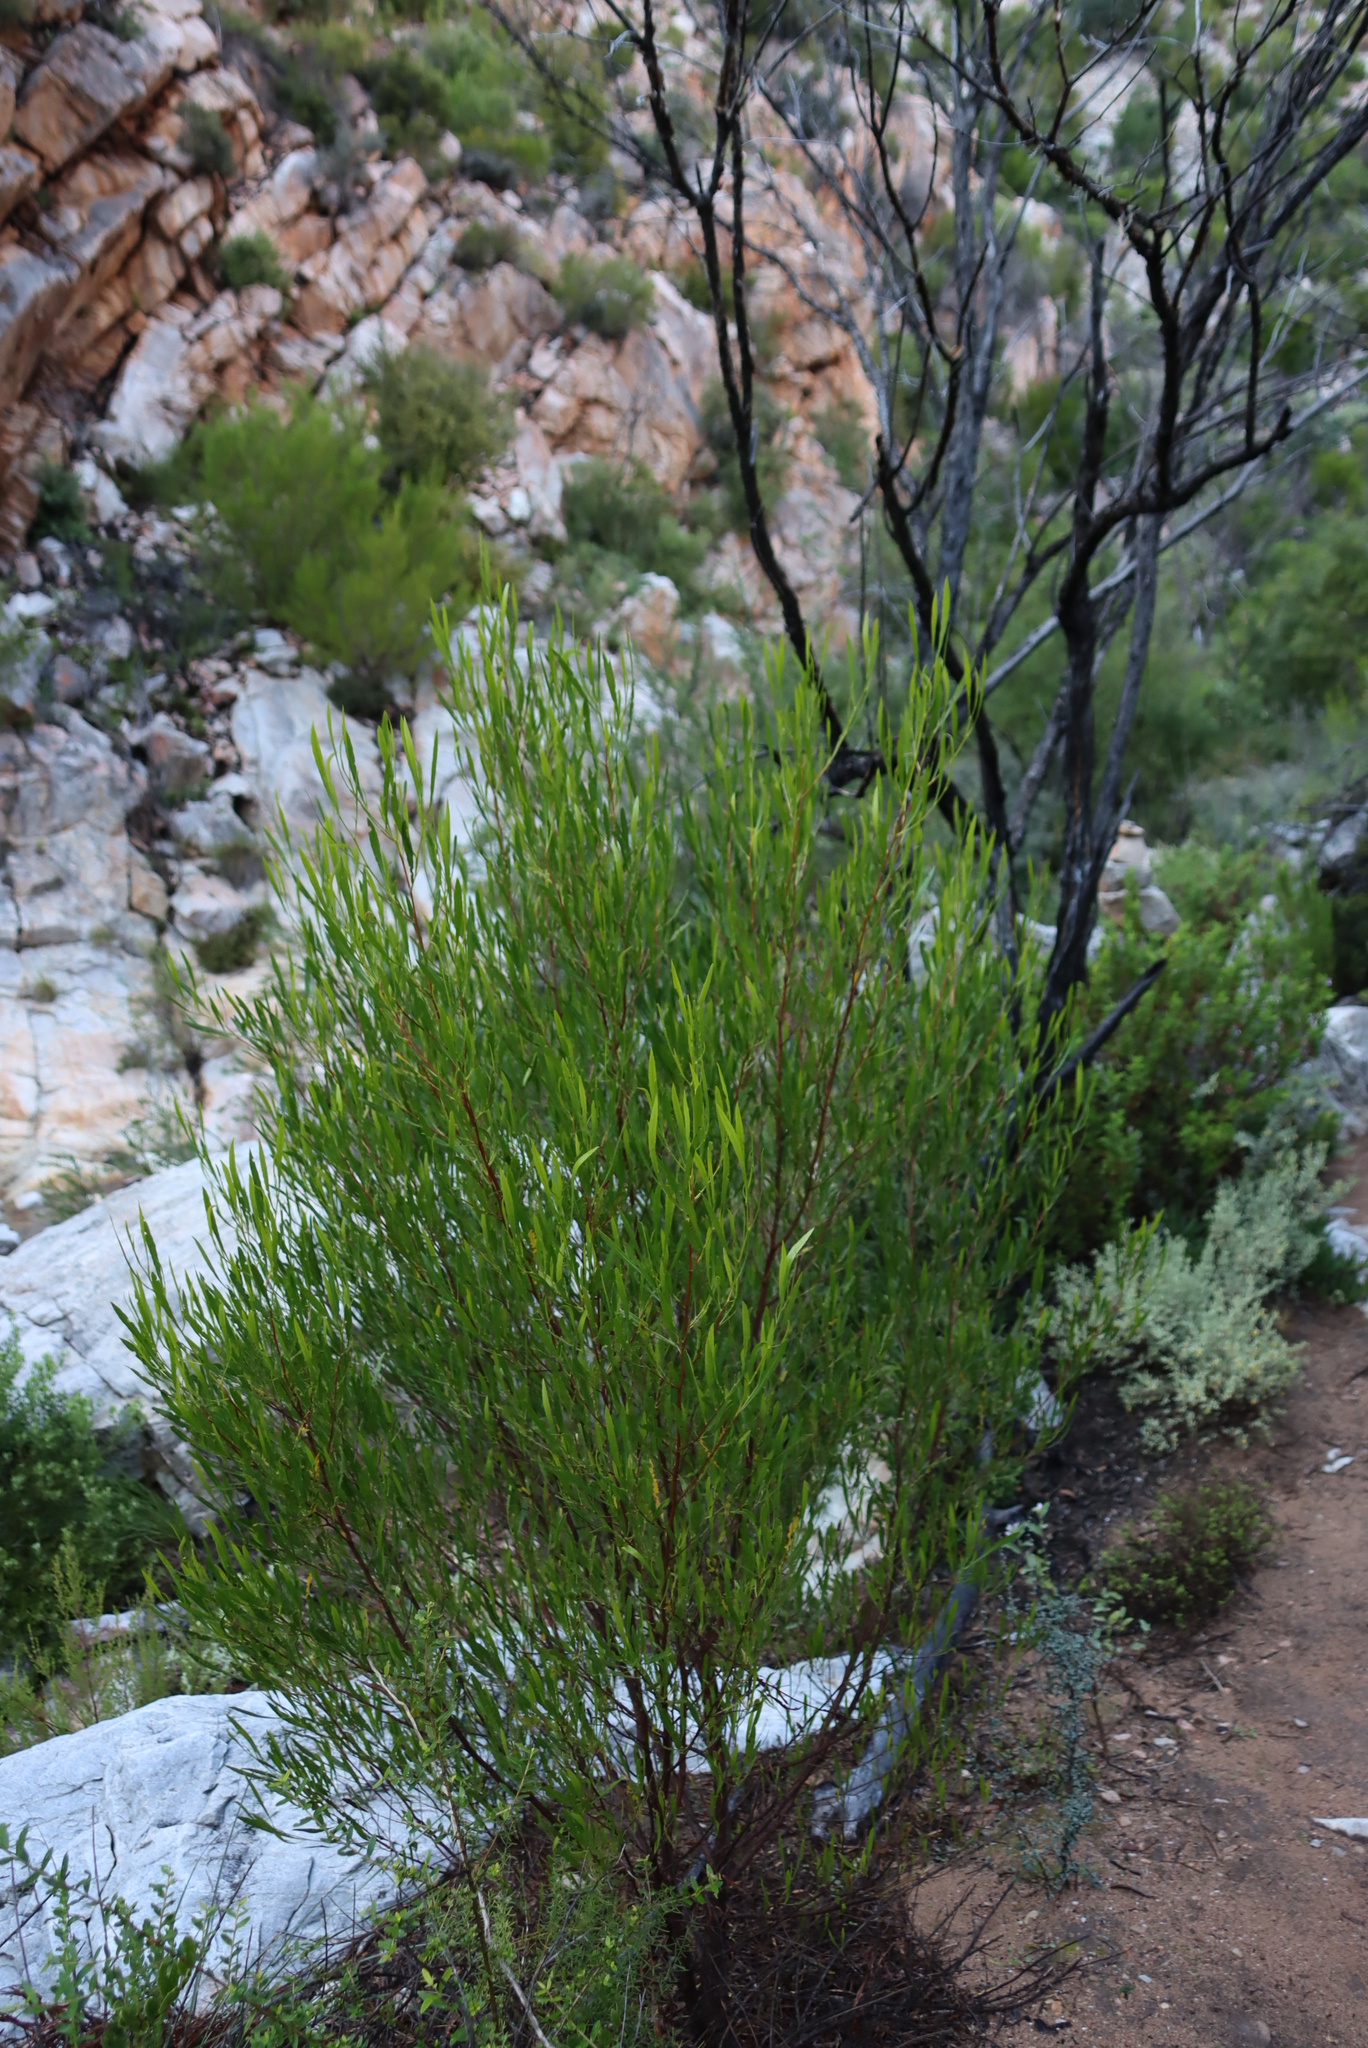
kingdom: Plantae
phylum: Tracheophyta
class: Magnoliopsida
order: Sapindales
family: Sapindaceae
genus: Dodonaea
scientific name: Dodonaea viscosa
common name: Hopbush
